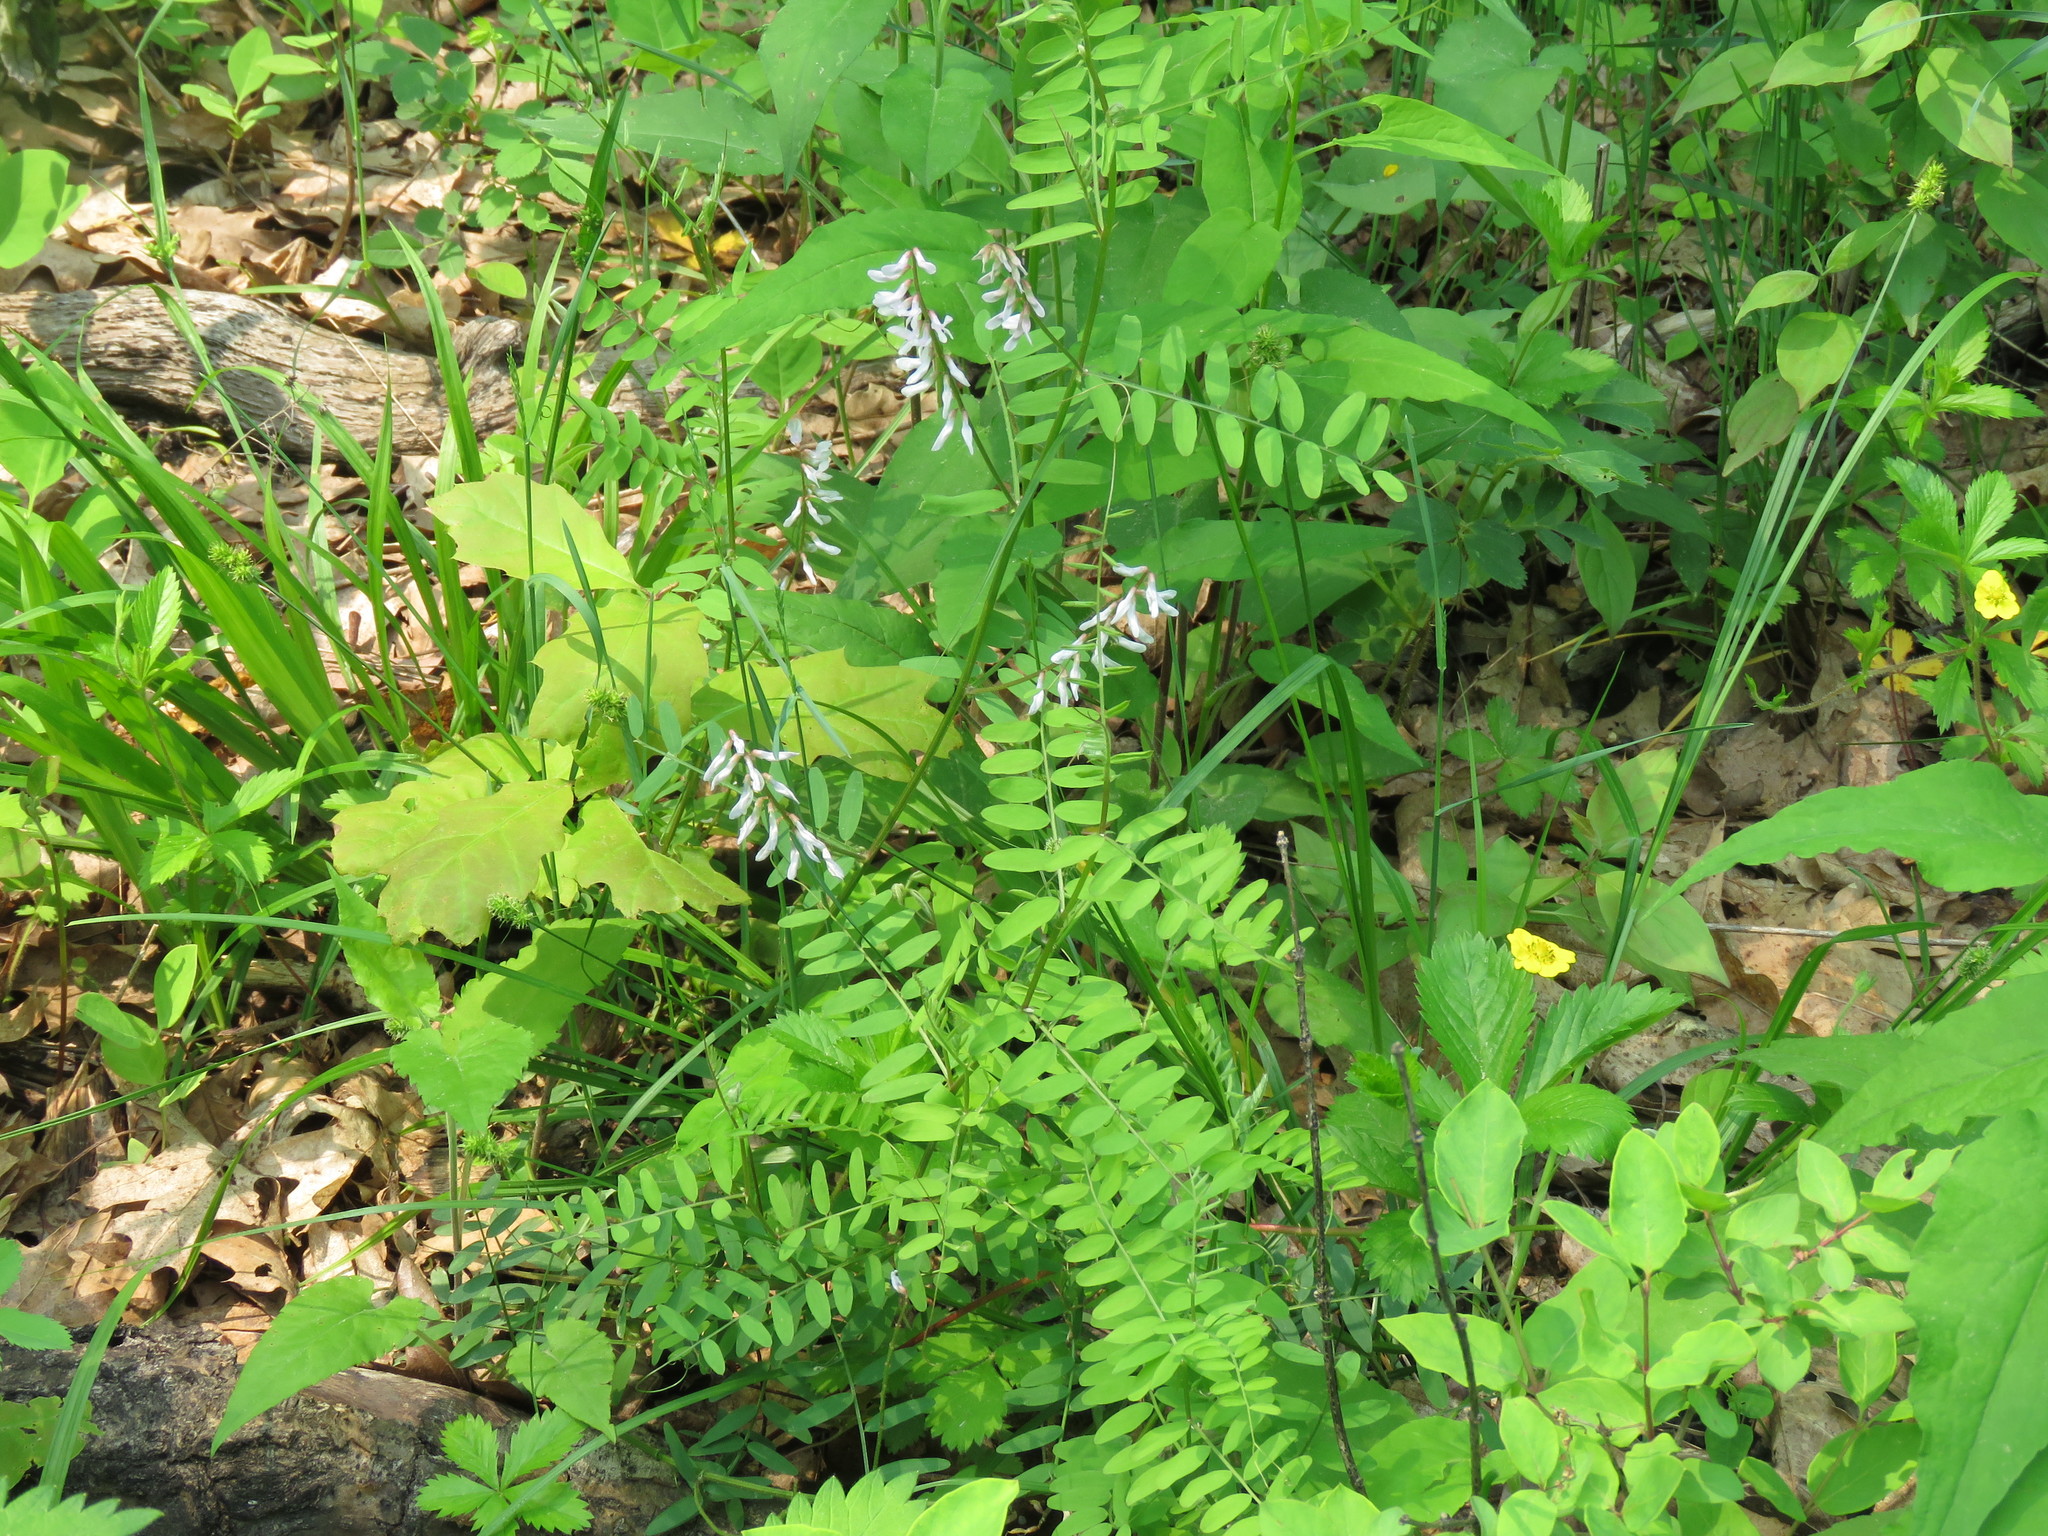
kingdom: Plantae
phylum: Tracheophyta
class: Magnoliopsida
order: Fabales
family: Fabaceae
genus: Vicia
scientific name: Vicia caroliniana
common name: Carolina vetch
